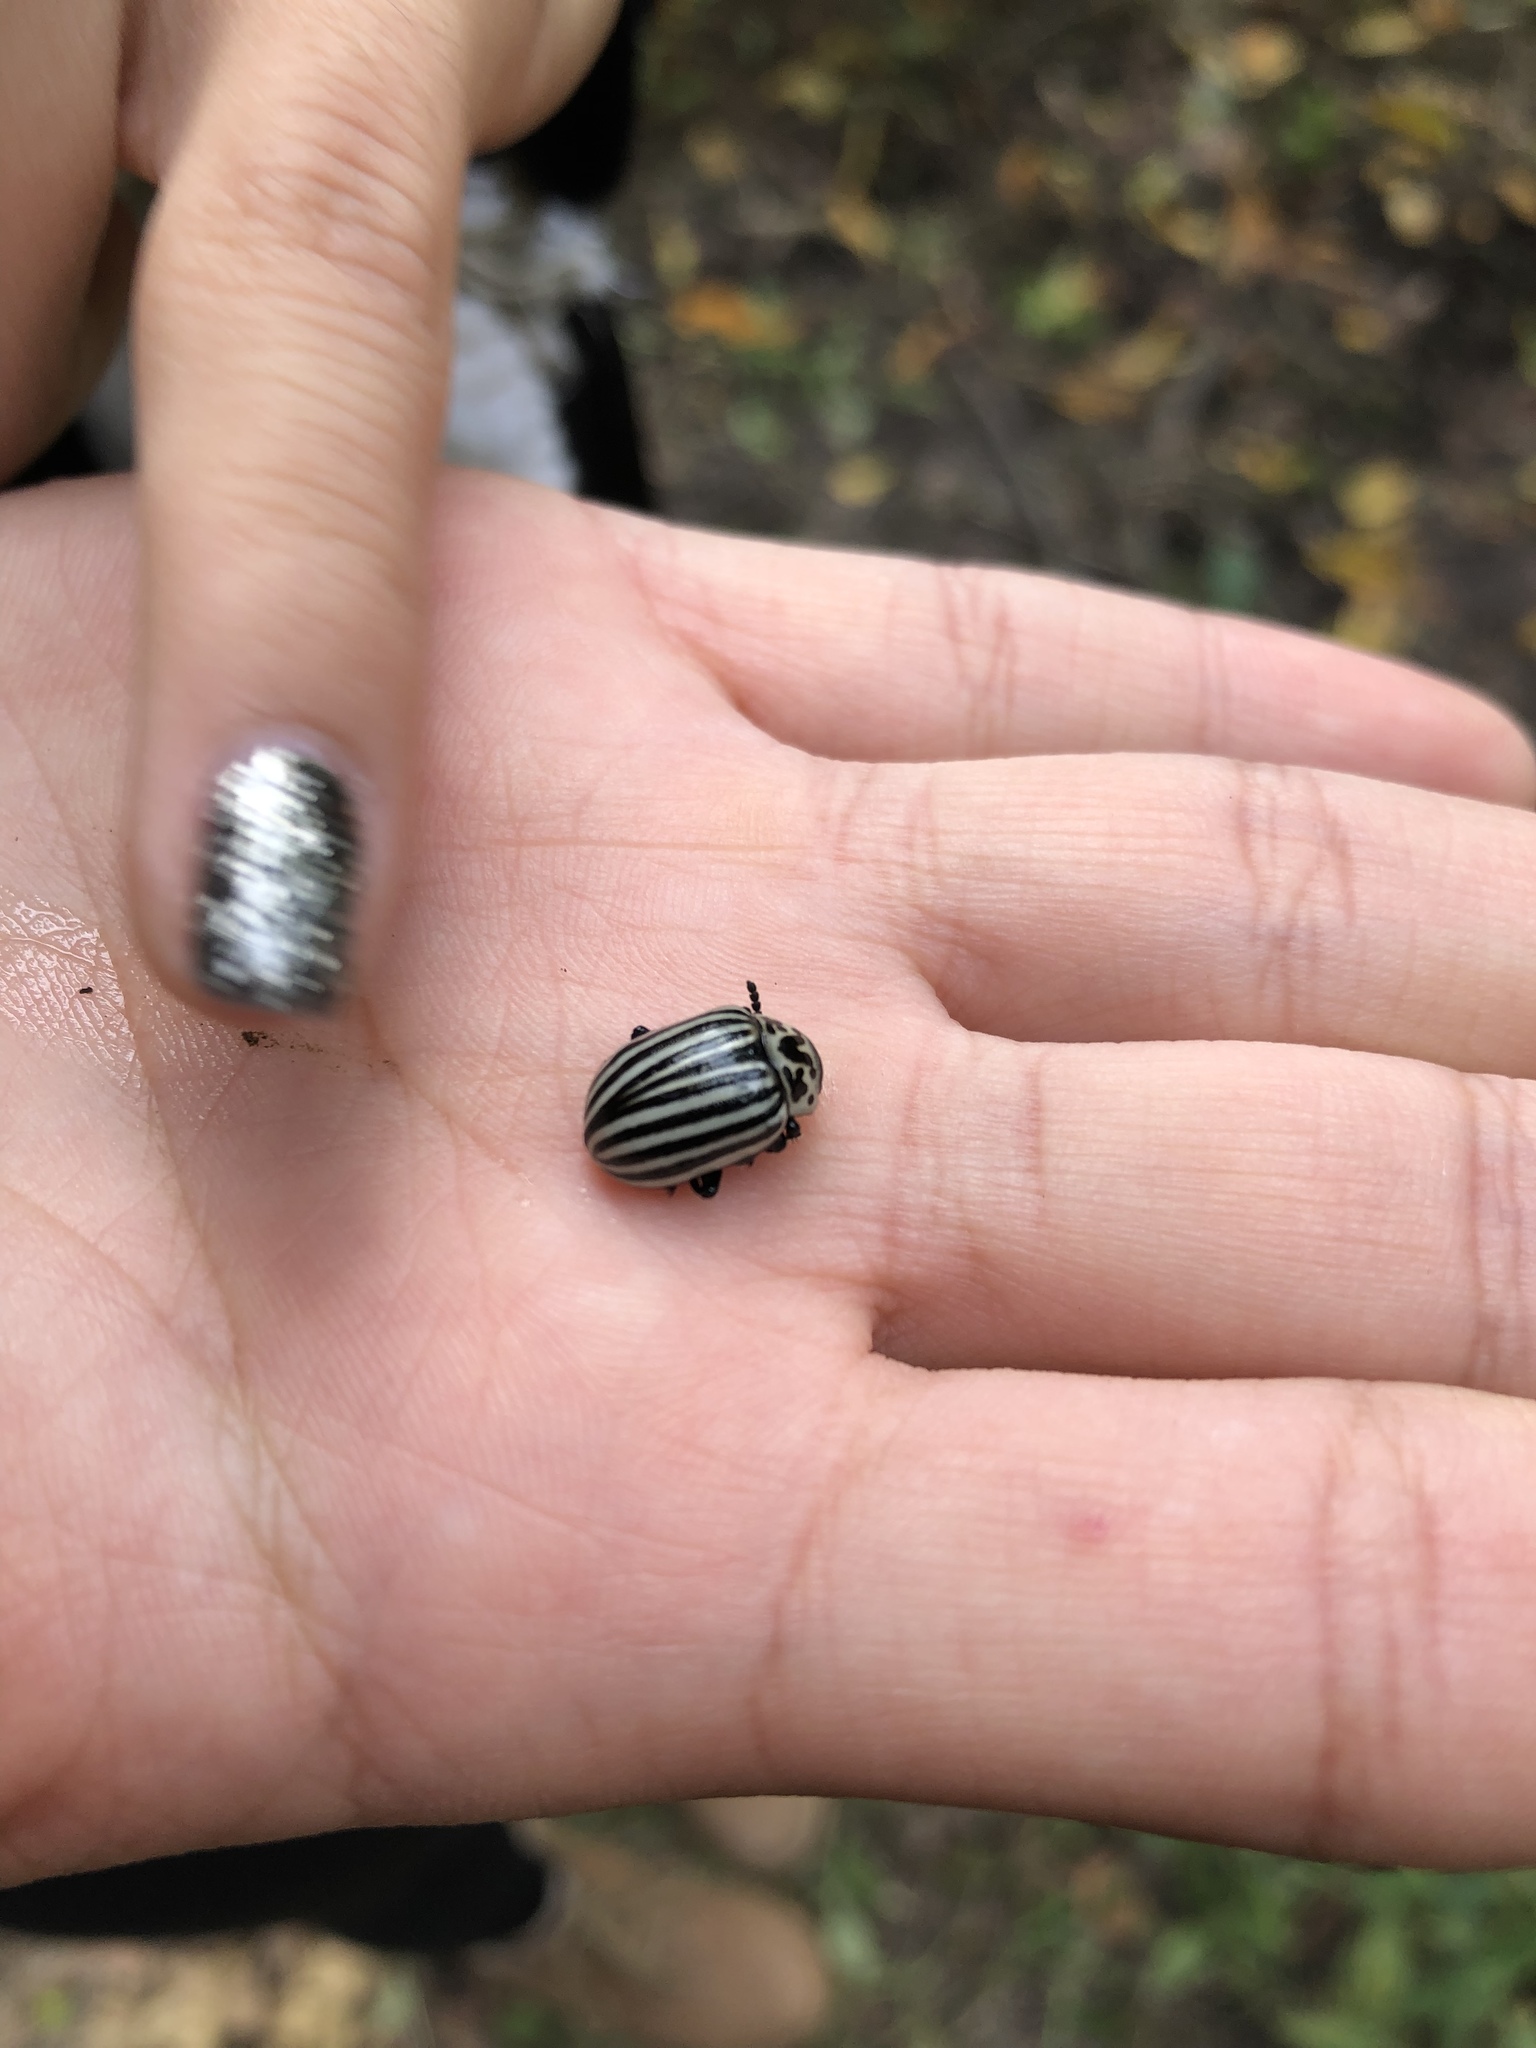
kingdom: Animalia
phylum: Arthropoda
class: Insecta
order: Coleoptera
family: Chrysomelidae
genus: Leptinotarsa
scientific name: Leptinotarsa
